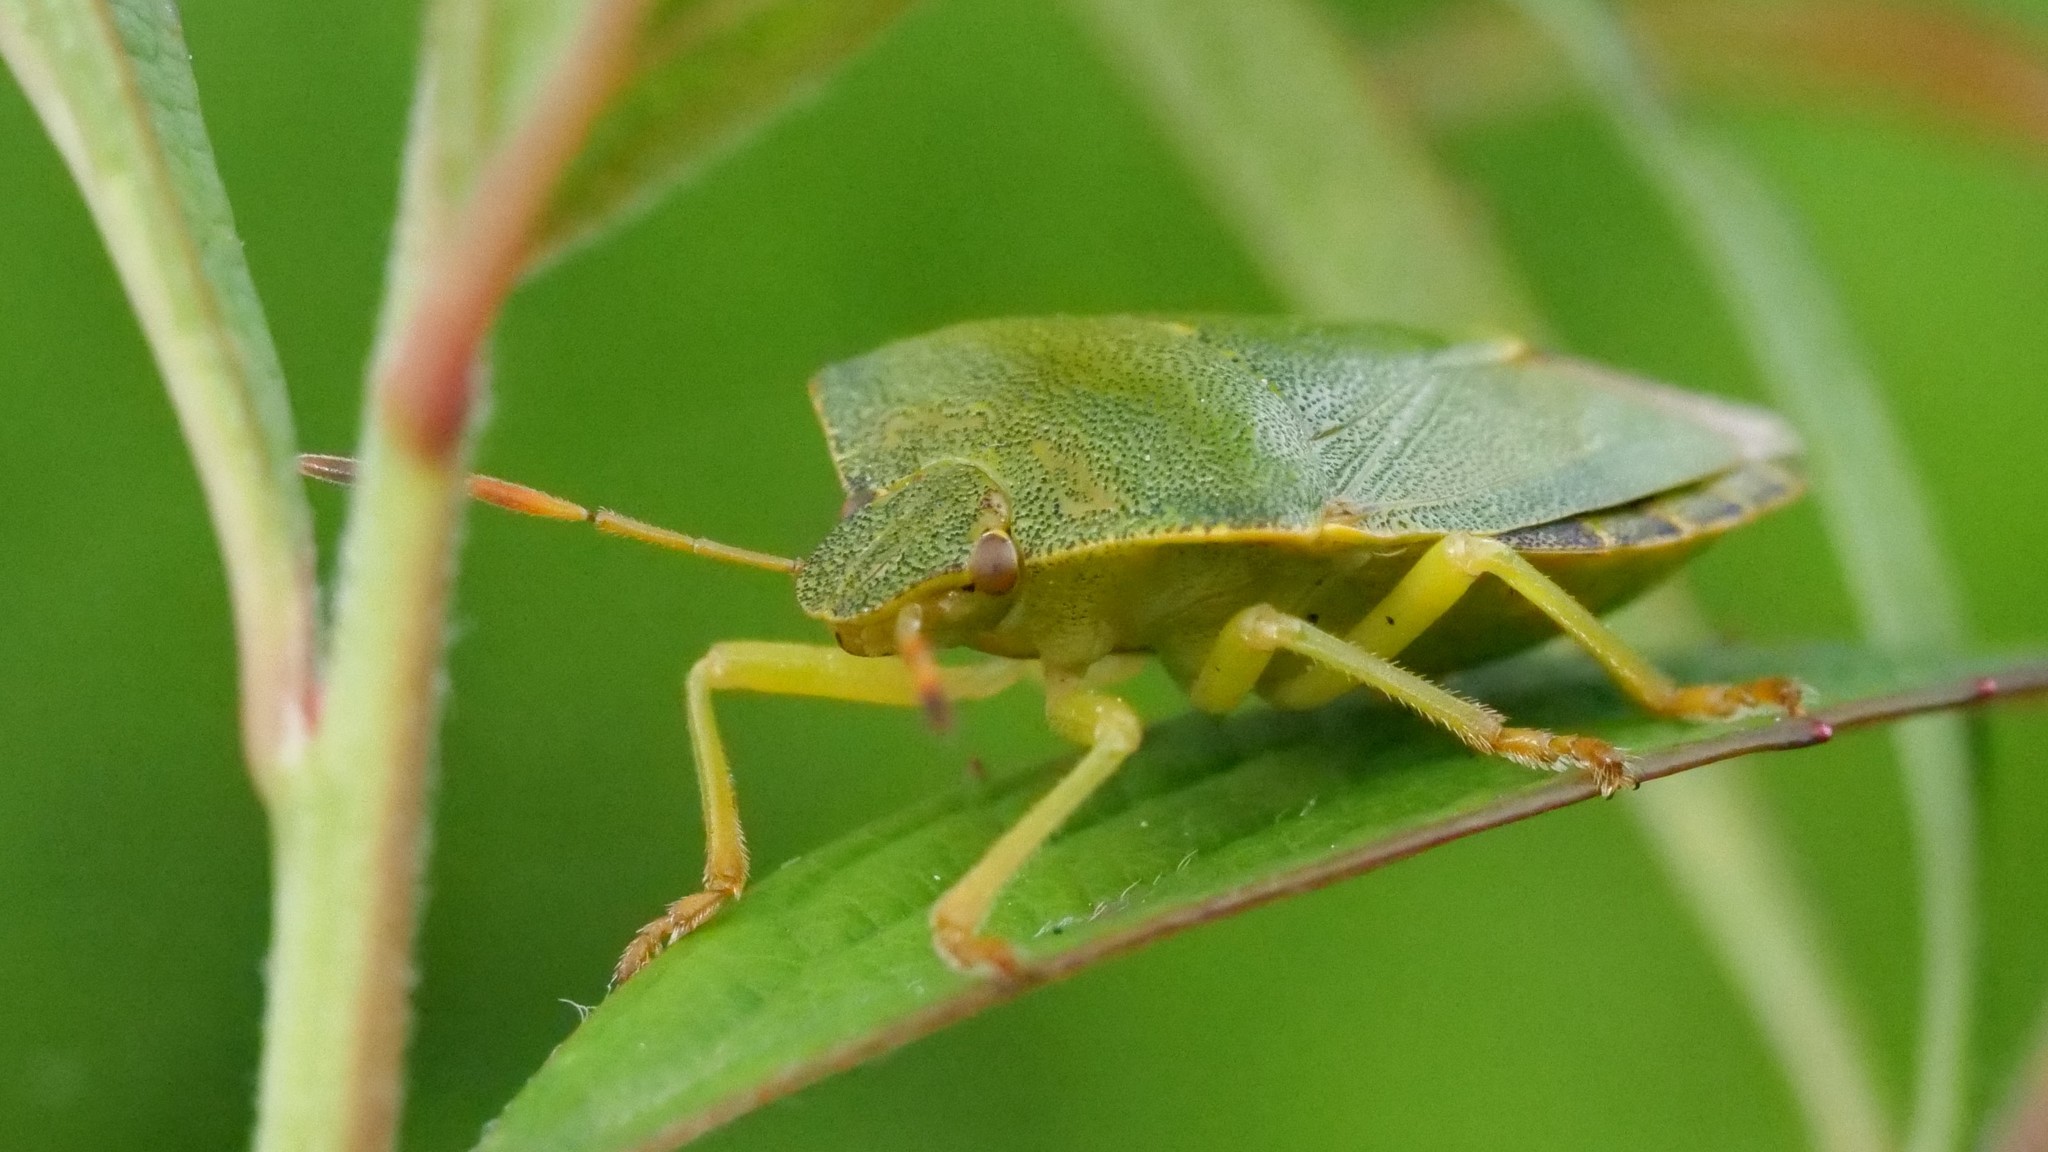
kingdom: Animalia
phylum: Arthropoda
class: Insecta
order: Hemiptera
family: Pentatomidae
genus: Palomena
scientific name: Palomena prasina
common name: Green shieldbug
